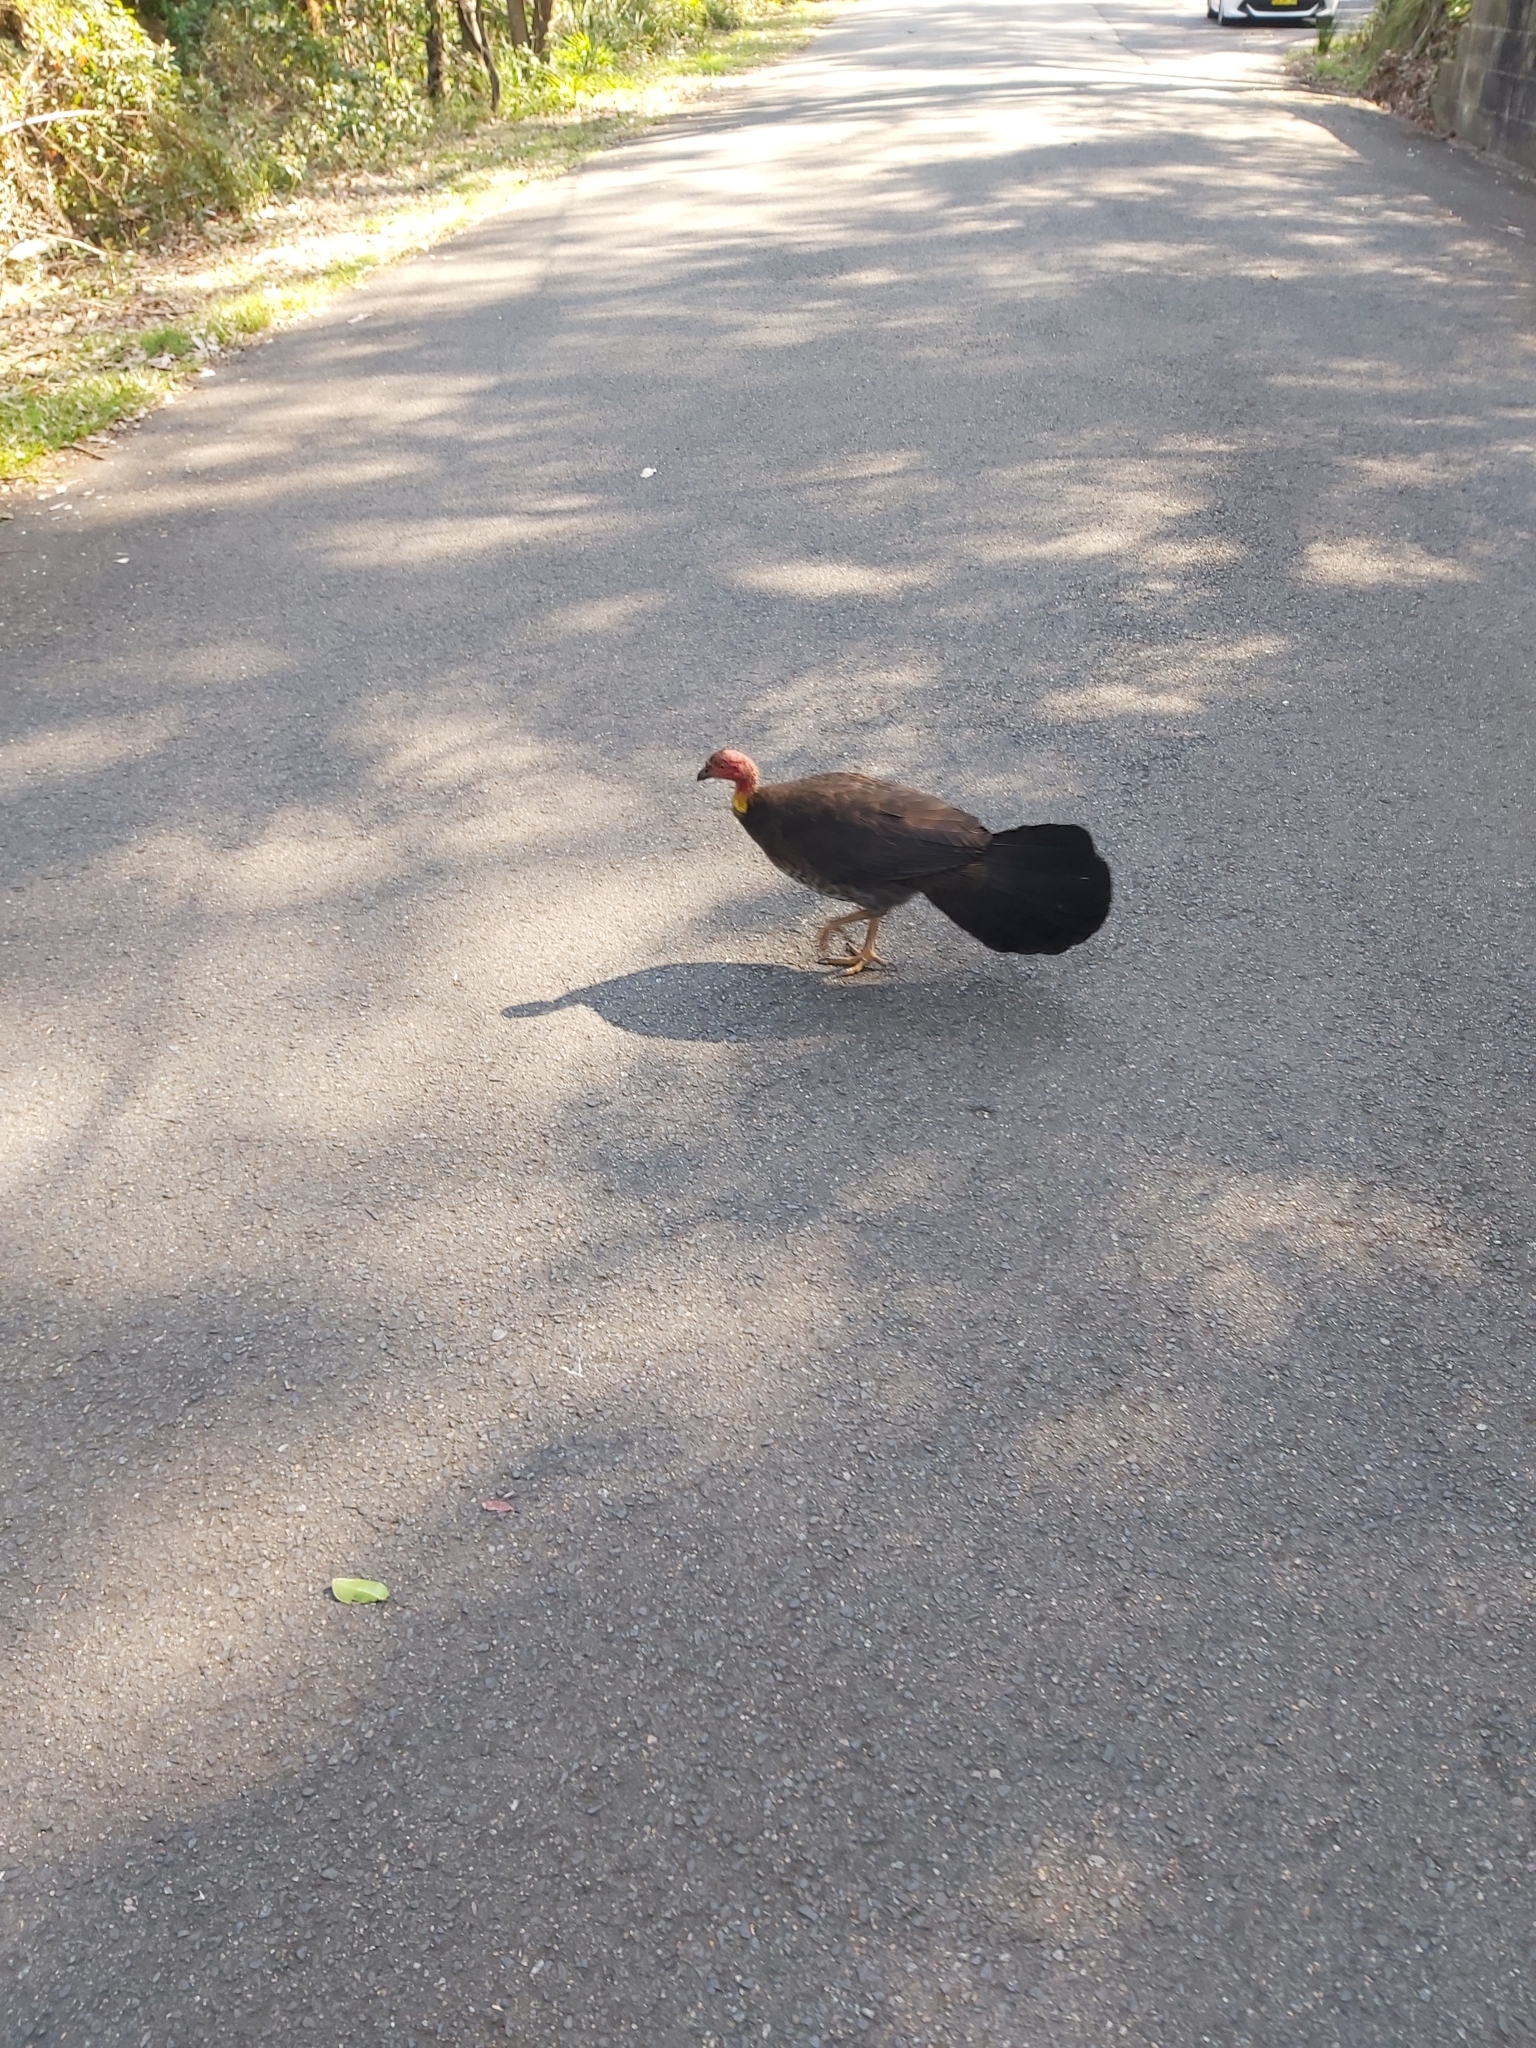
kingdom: Animalia
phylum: Chordata
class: Aves
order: Galliformes
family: Megapodiidae
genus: Alectura
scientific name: Alectura lathami
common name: Australian brushturkey
